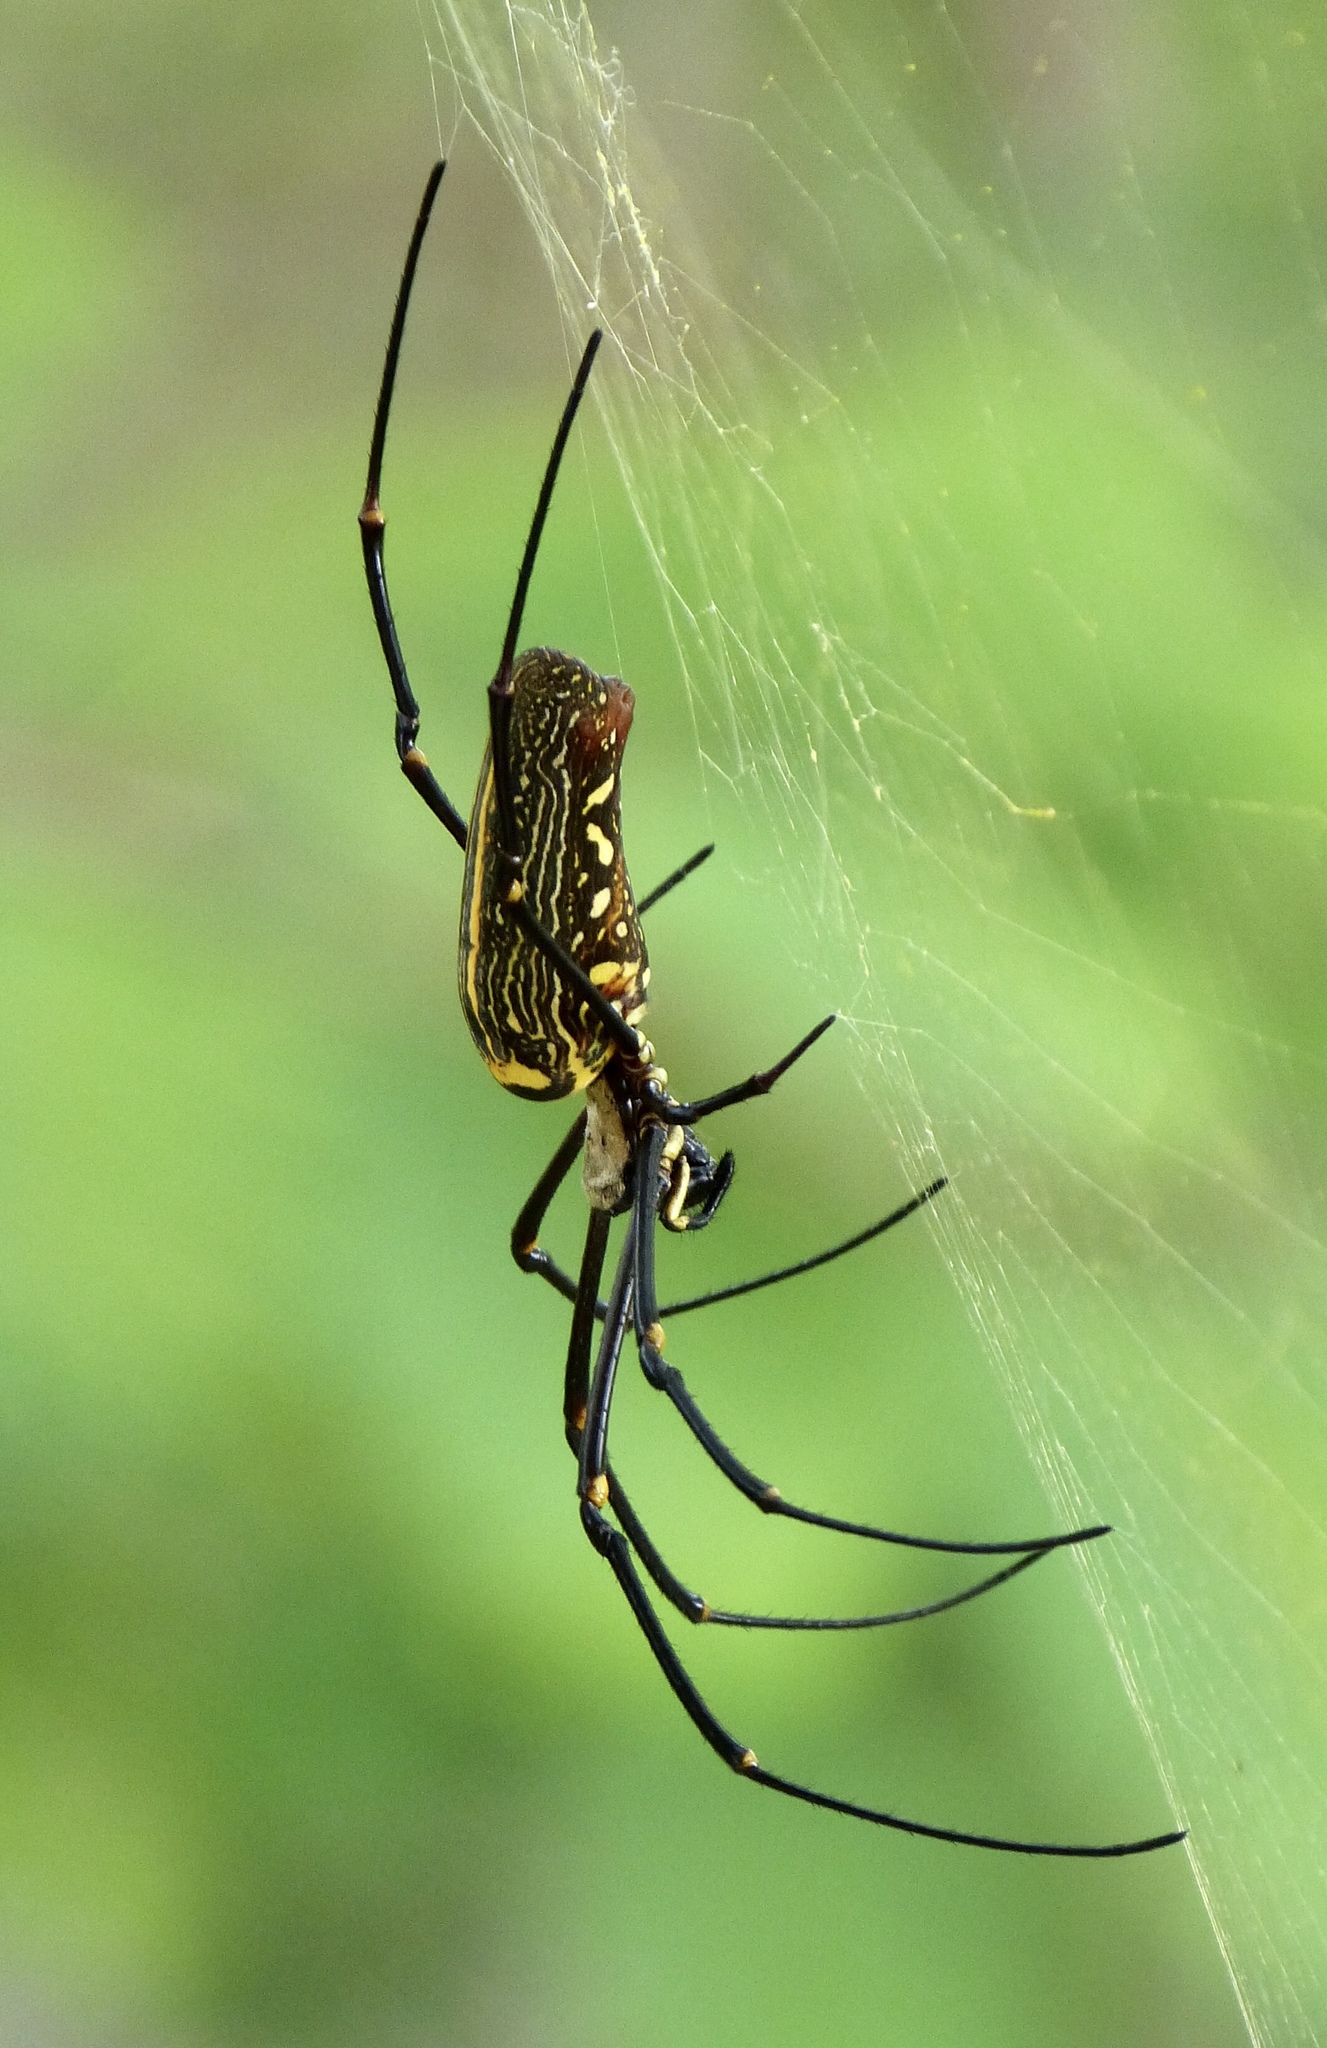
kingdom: Animalia
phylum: Arthropoda
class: Arachnida
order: Araneae
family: Araneidae
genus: Nephila
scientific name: Nephila pilipes
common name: Giant golden orb weaver
